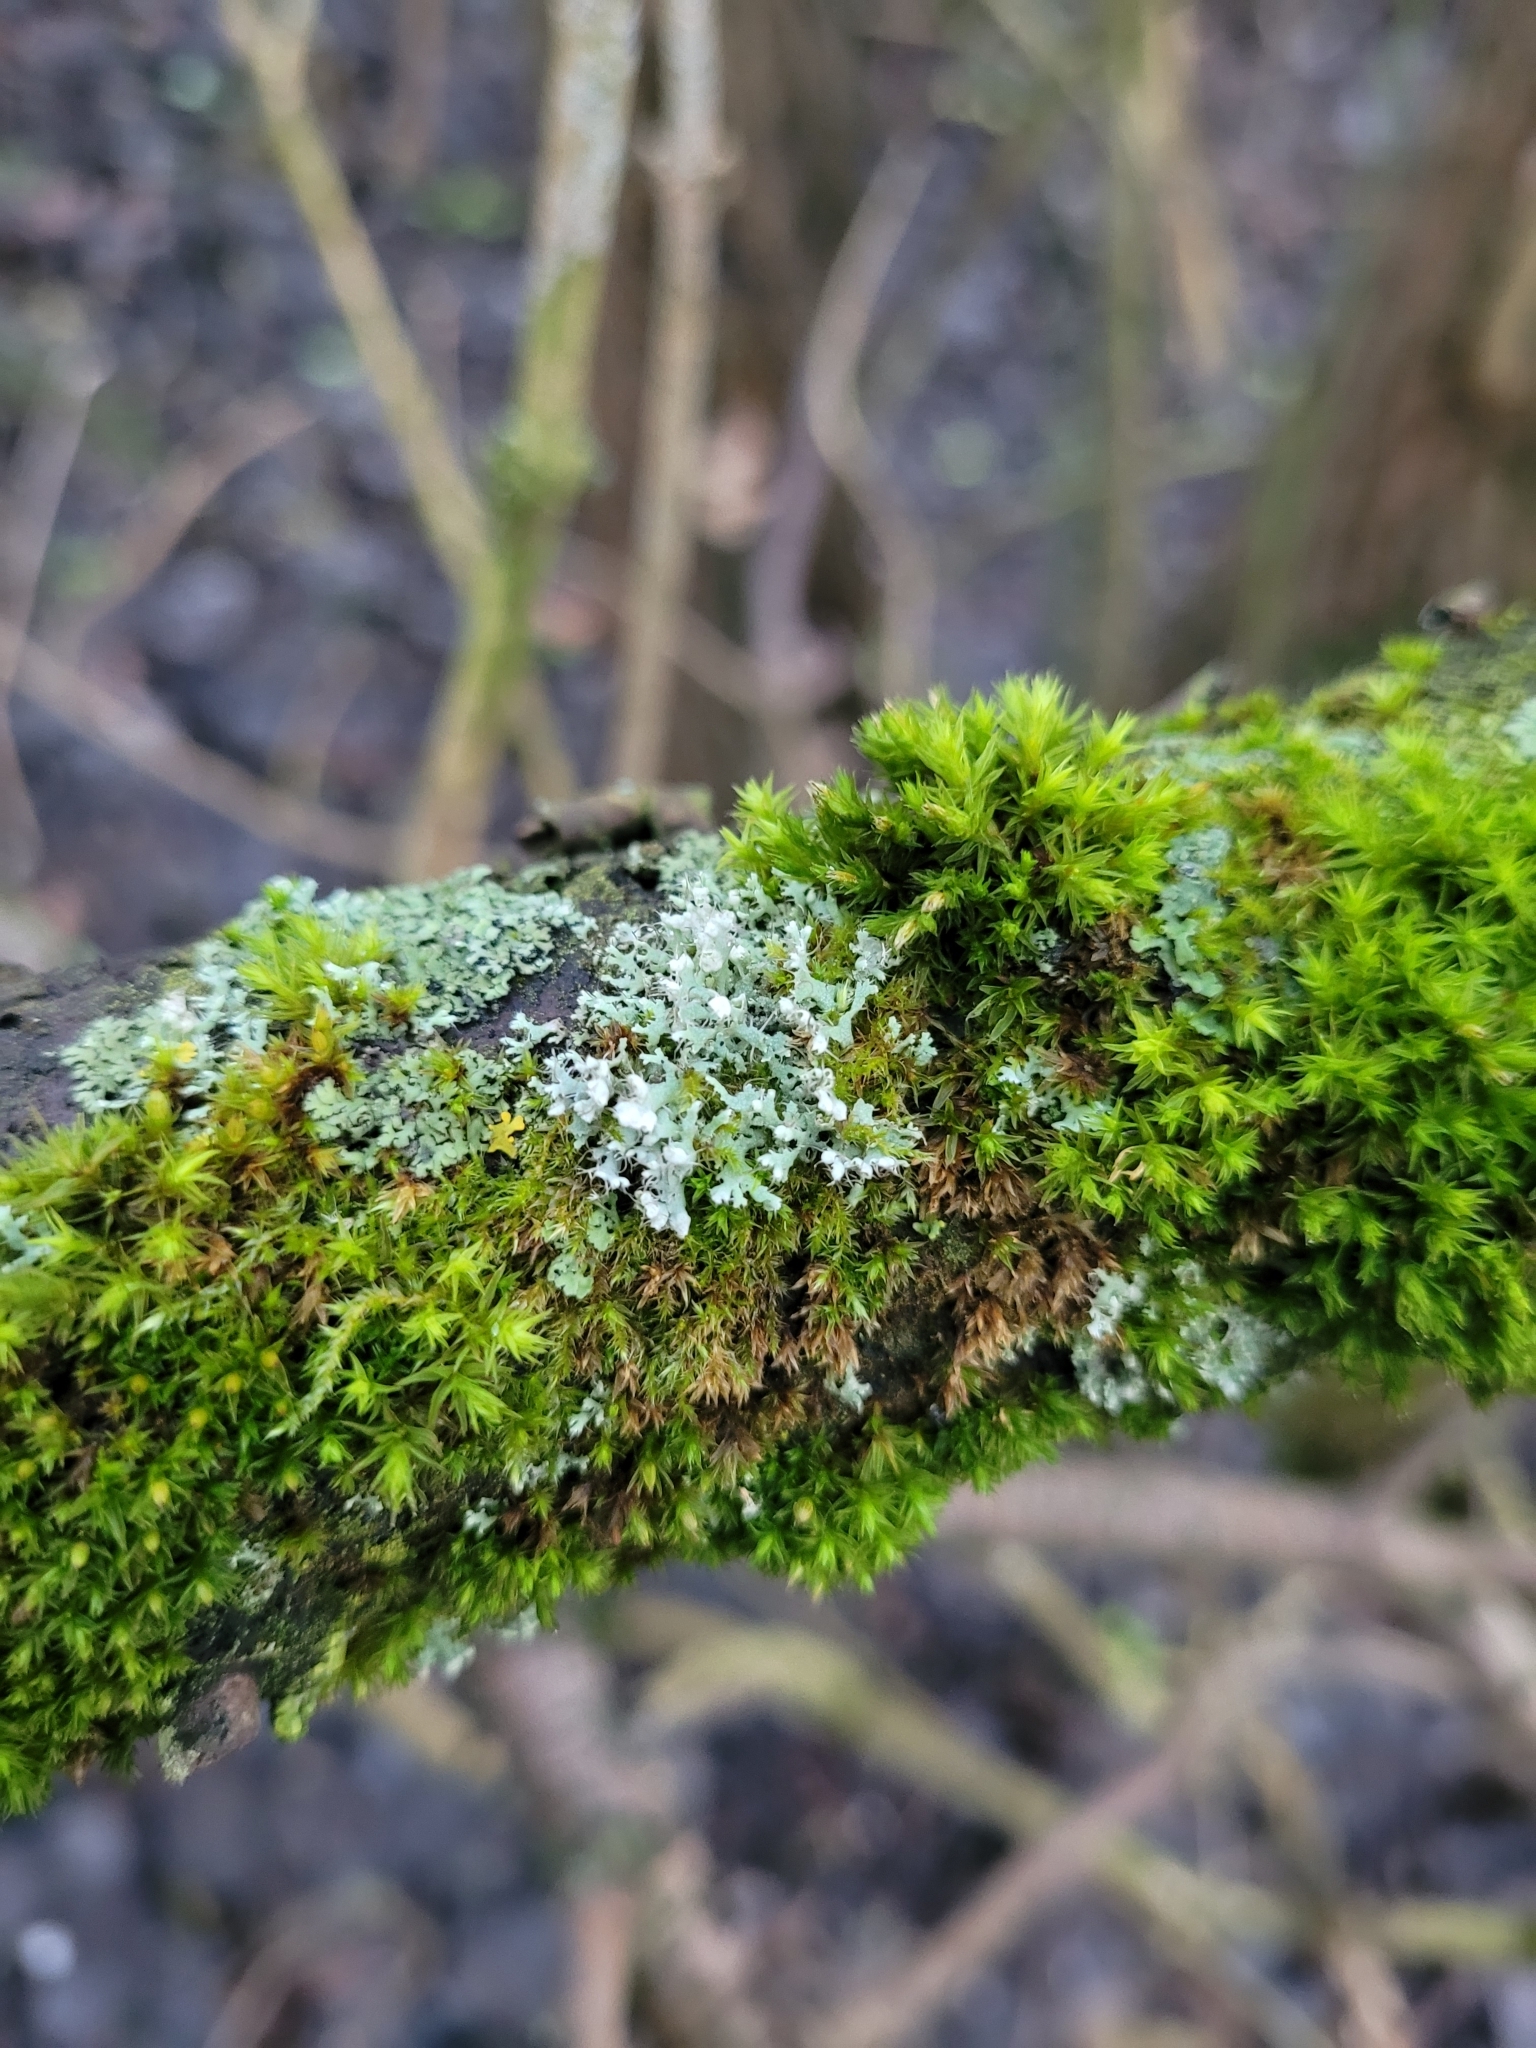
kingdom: Fungi
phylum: Ascomycota
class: Lecanoromycetes
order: Caliciales
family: Physciaceae
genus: Physcia
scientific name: Physcia adscendens
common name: Hooded rosette lichen
